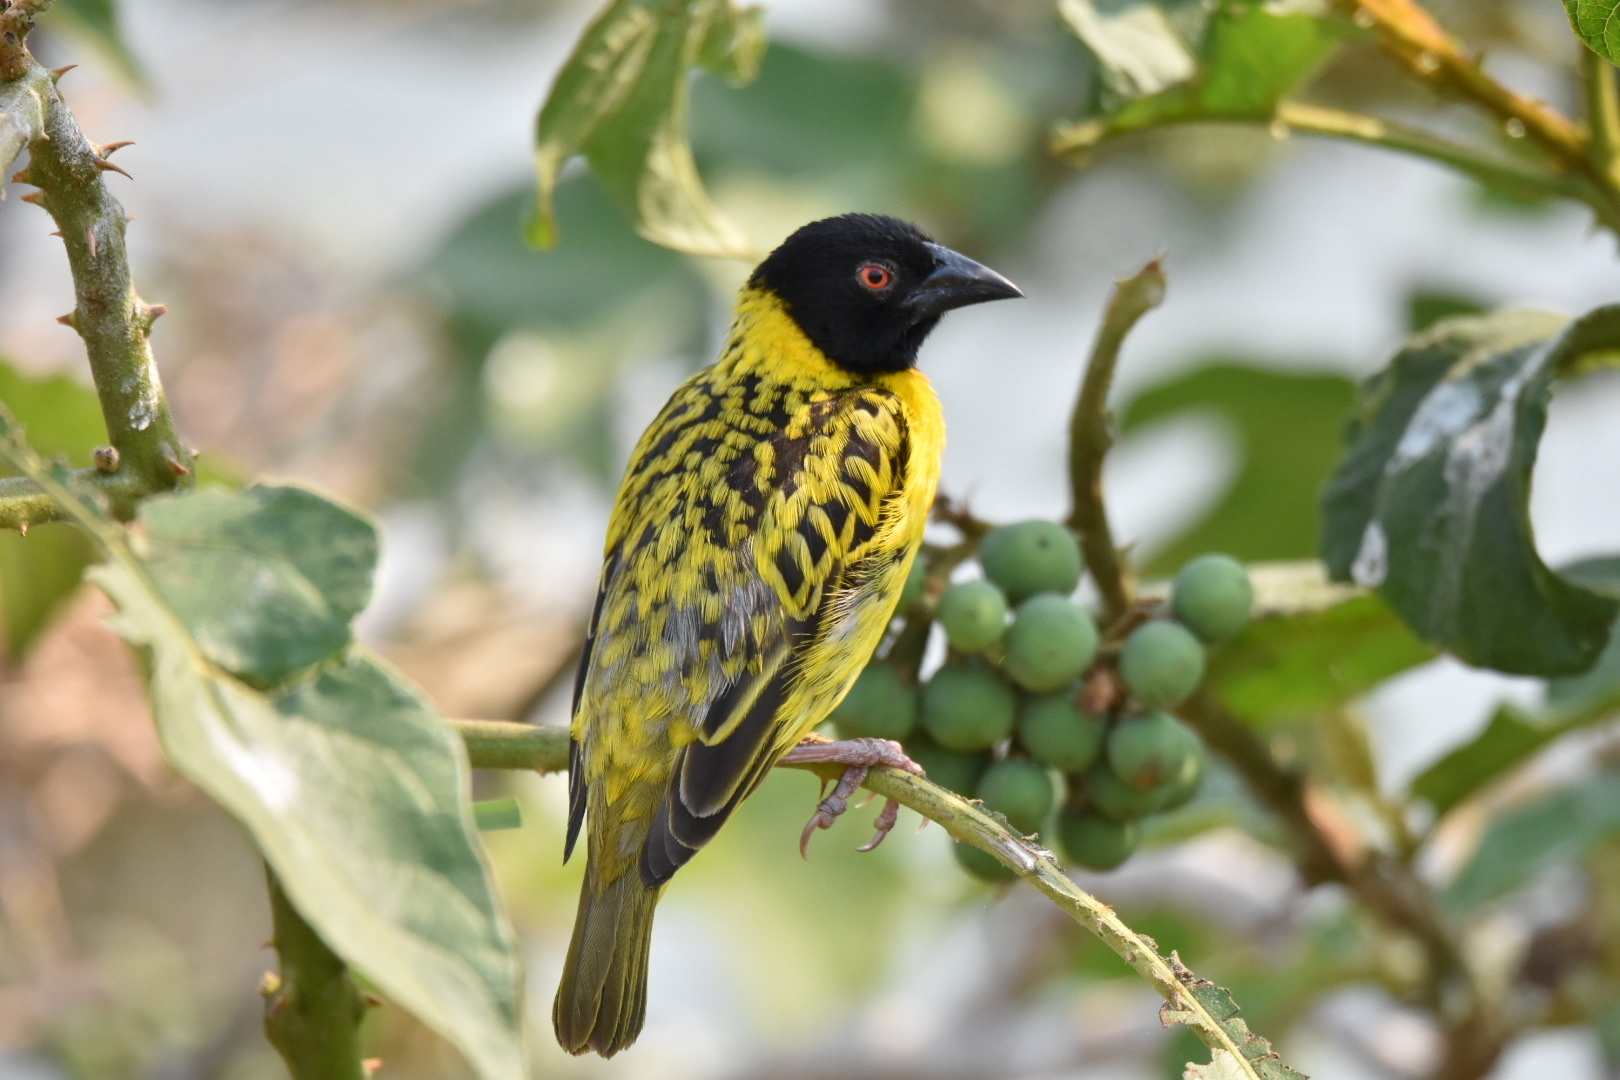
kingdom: Animalia
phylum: Chordata
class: Aves
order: Passeriformes
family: Ploceidae
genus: Ploceus
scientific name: Ploceus cucullatus
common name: Village weaver
